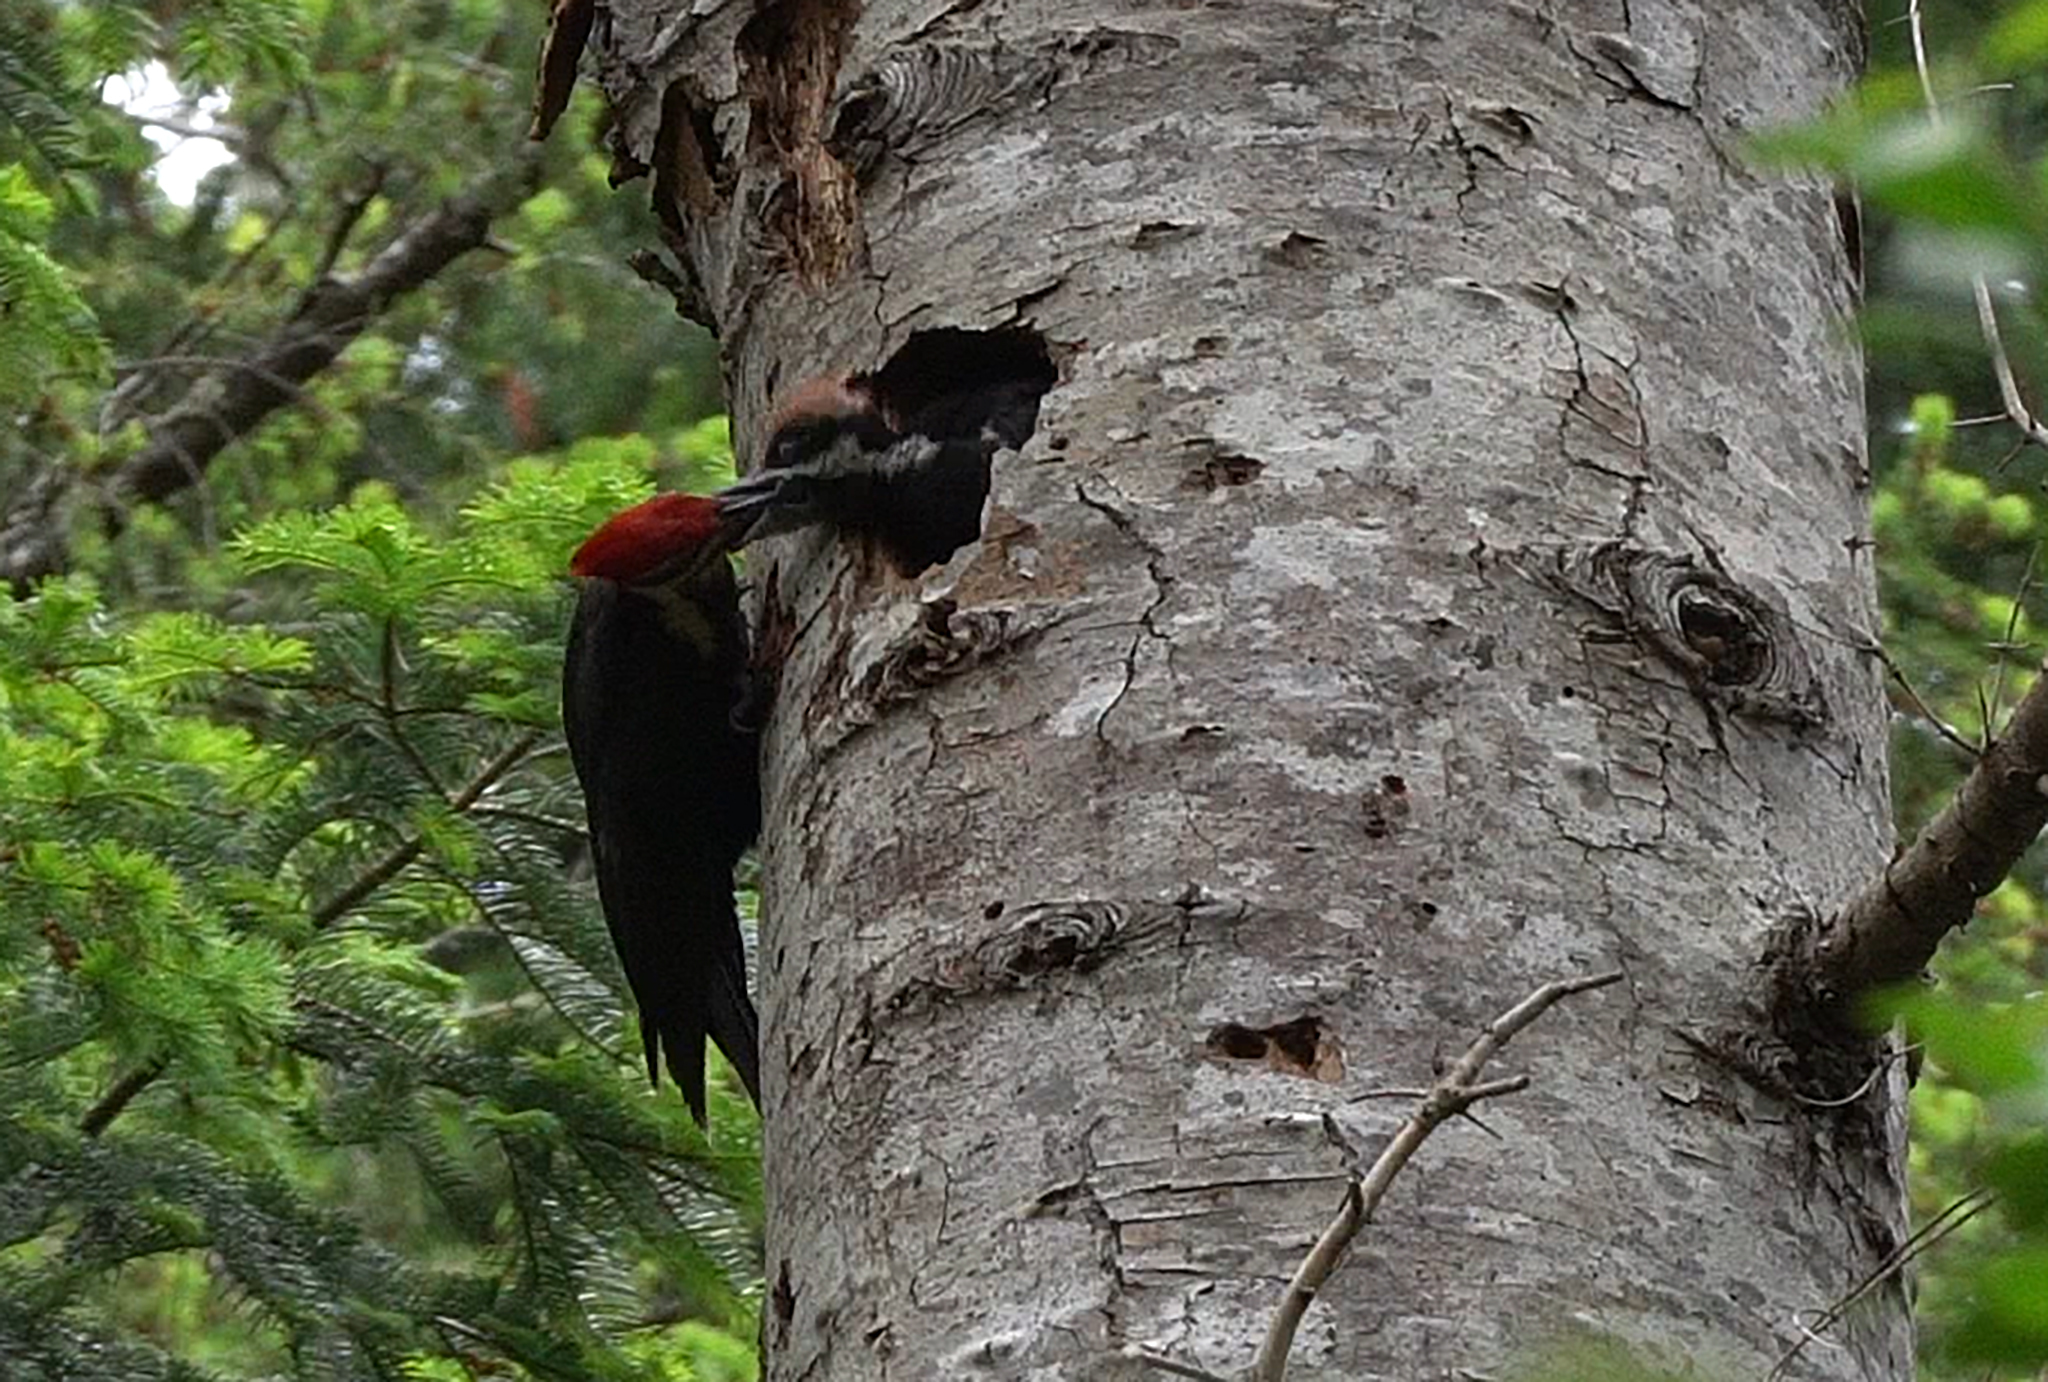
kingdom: Animalia
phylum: Chordata
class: Aves
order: Piciformes
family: Picidae
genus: Dryocopus
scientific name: Dryocopus pileatus
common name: Pileated woodpecker
